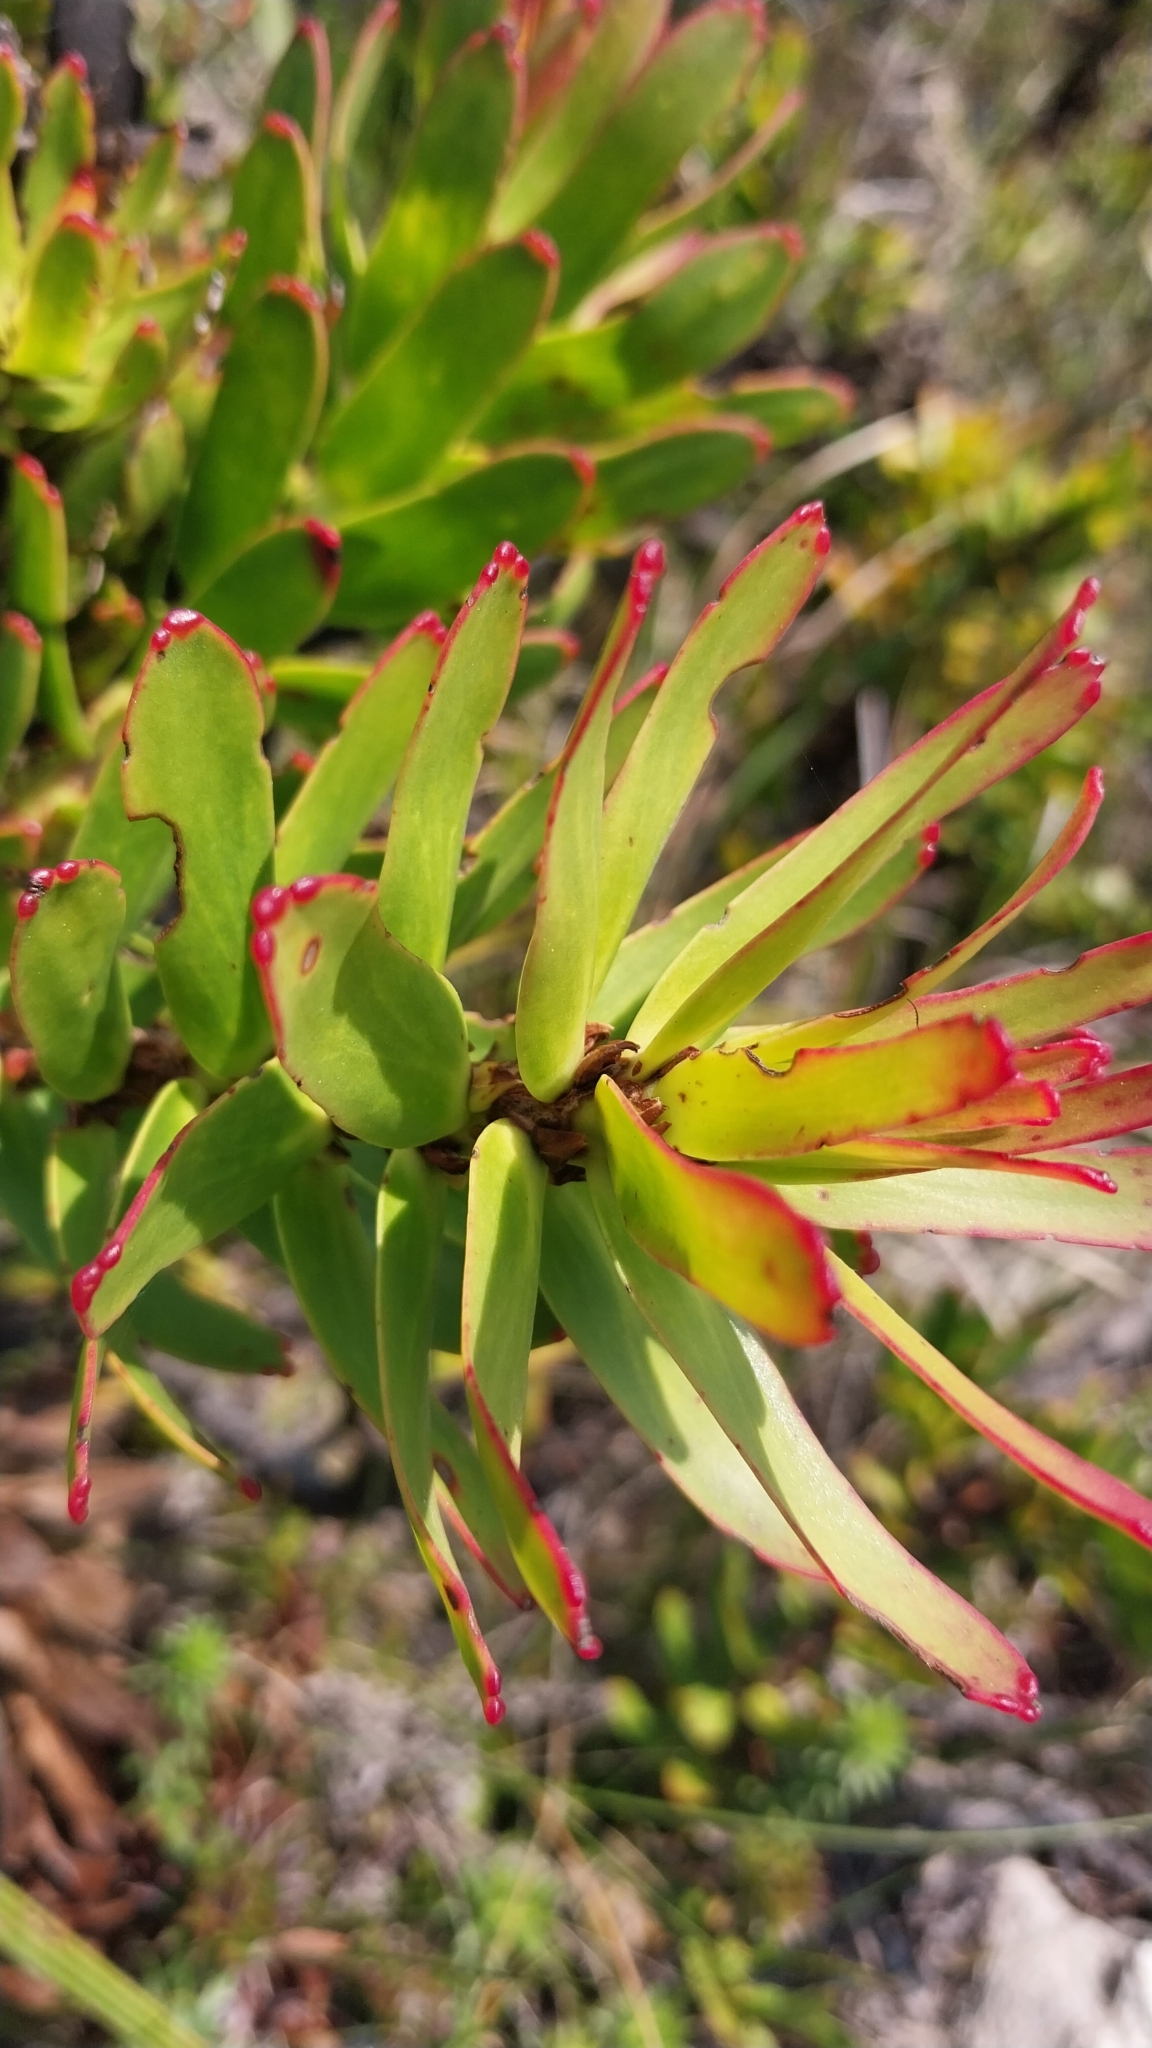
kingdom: Plantae
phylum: Tracheophyta
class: Magnoliopsida
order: Proteales
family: Proteaceae
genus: Mimetes
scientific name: Mimetes cucullatus
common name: Common pagoda
